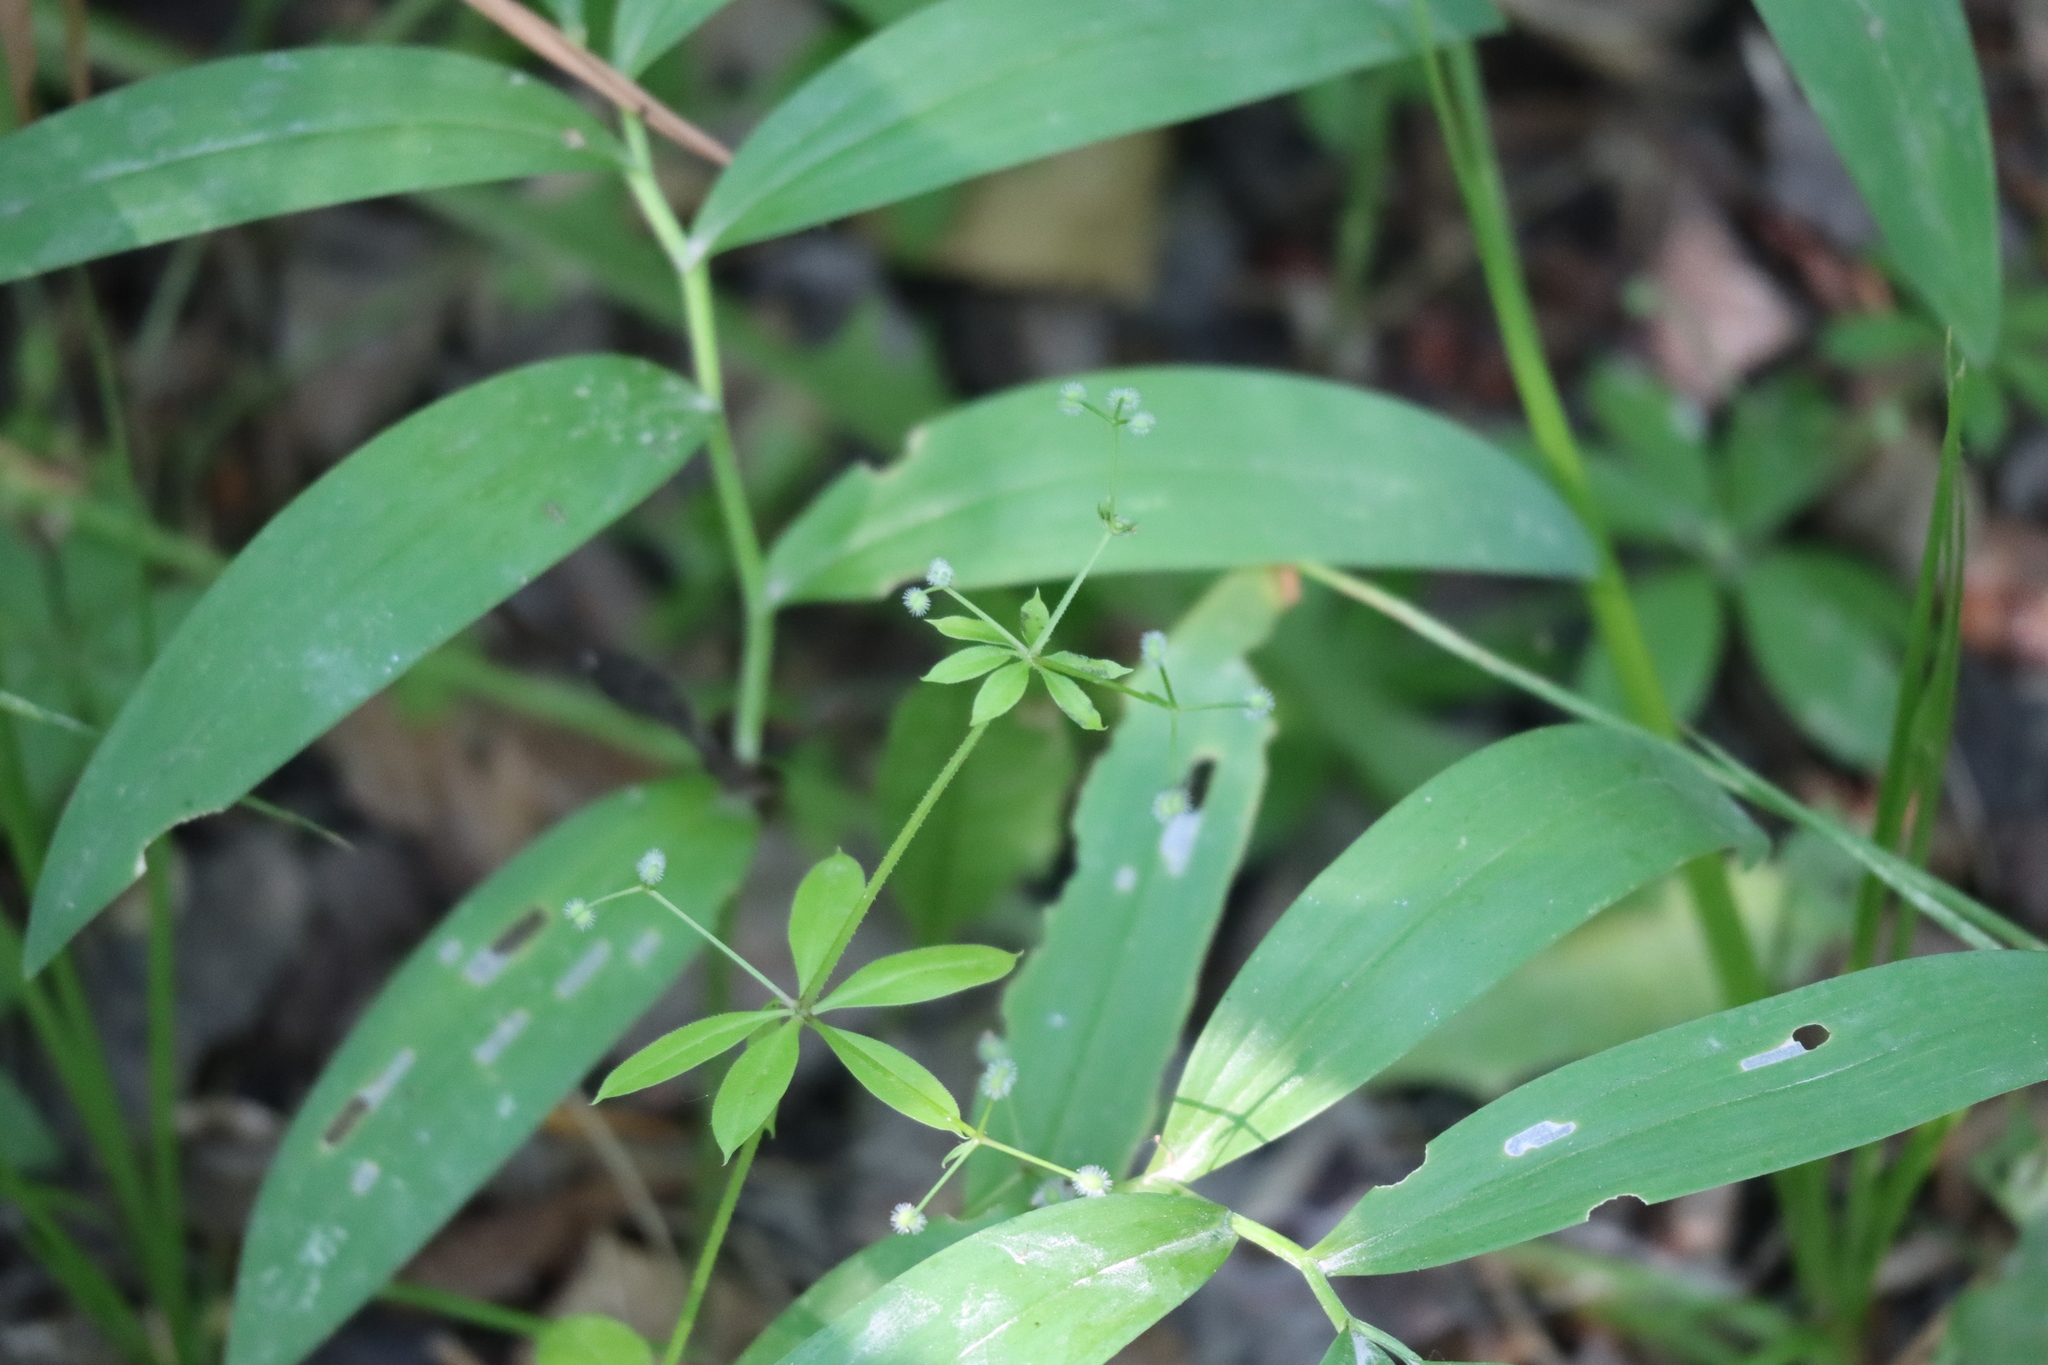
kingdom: Plantae
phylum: Tracheophyta
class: Magnoliopsida
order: Gentianales
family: Rubiaceae
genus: Galium
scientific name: Galium triflorum
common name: Fragrant bedstraw
